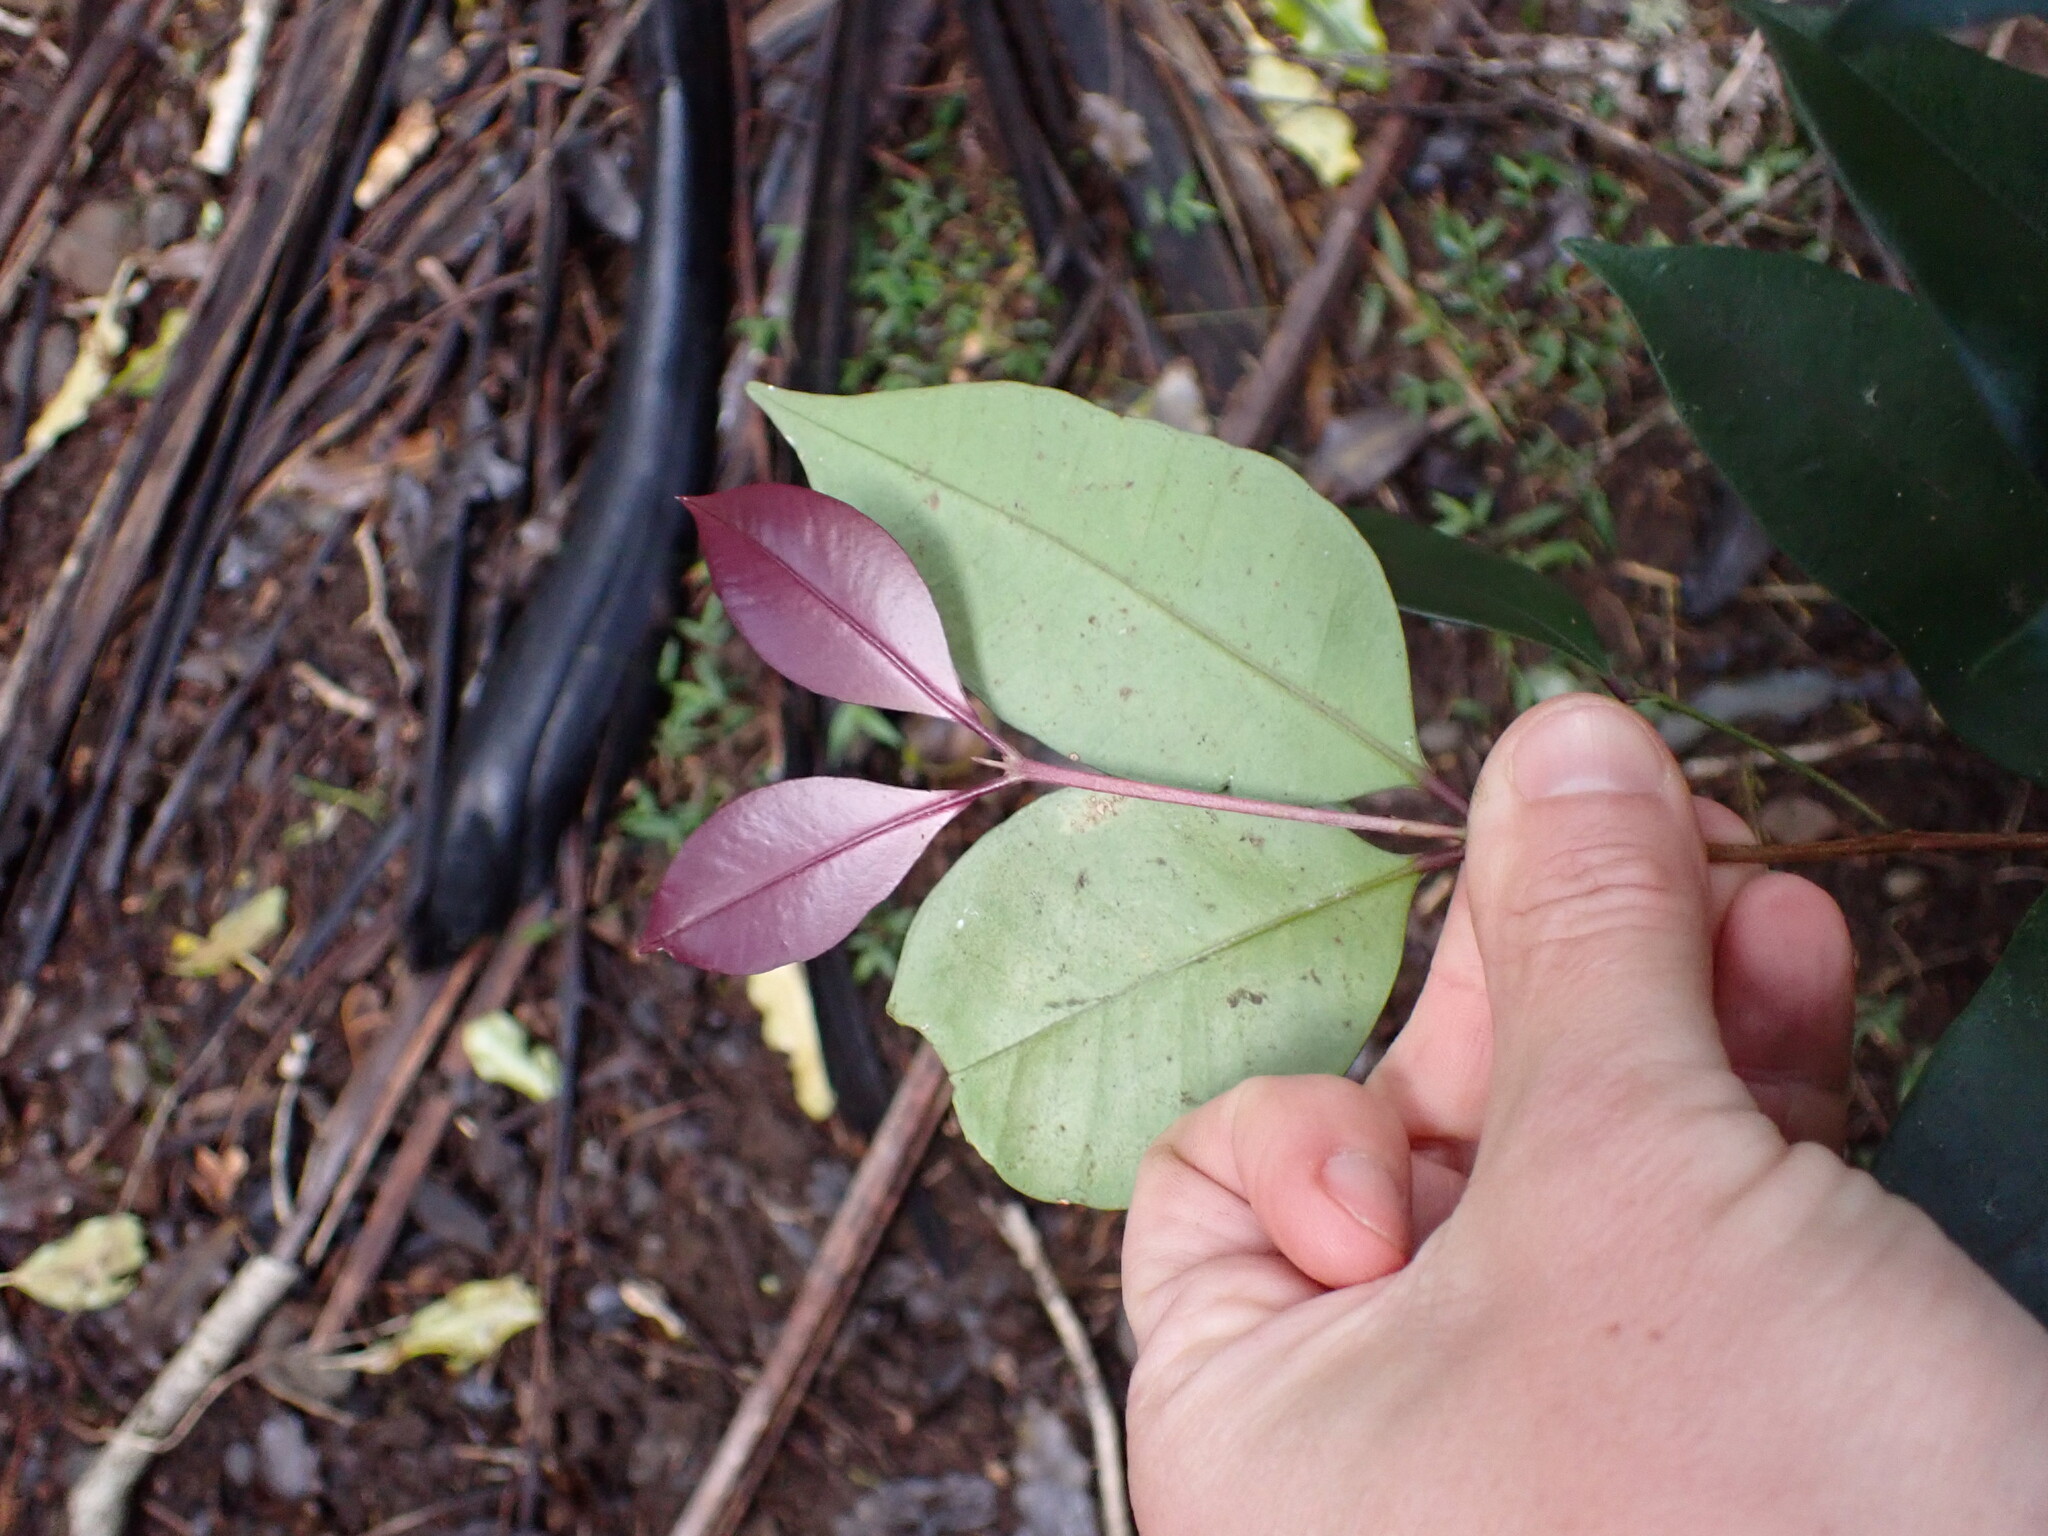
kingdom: Plantae
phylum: Tracheophyta
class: Magnoliopsida
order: Myrtales
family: Myrtaceae
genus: Syzygium
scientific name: Syzygium smithii
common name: Lilly-pilly
